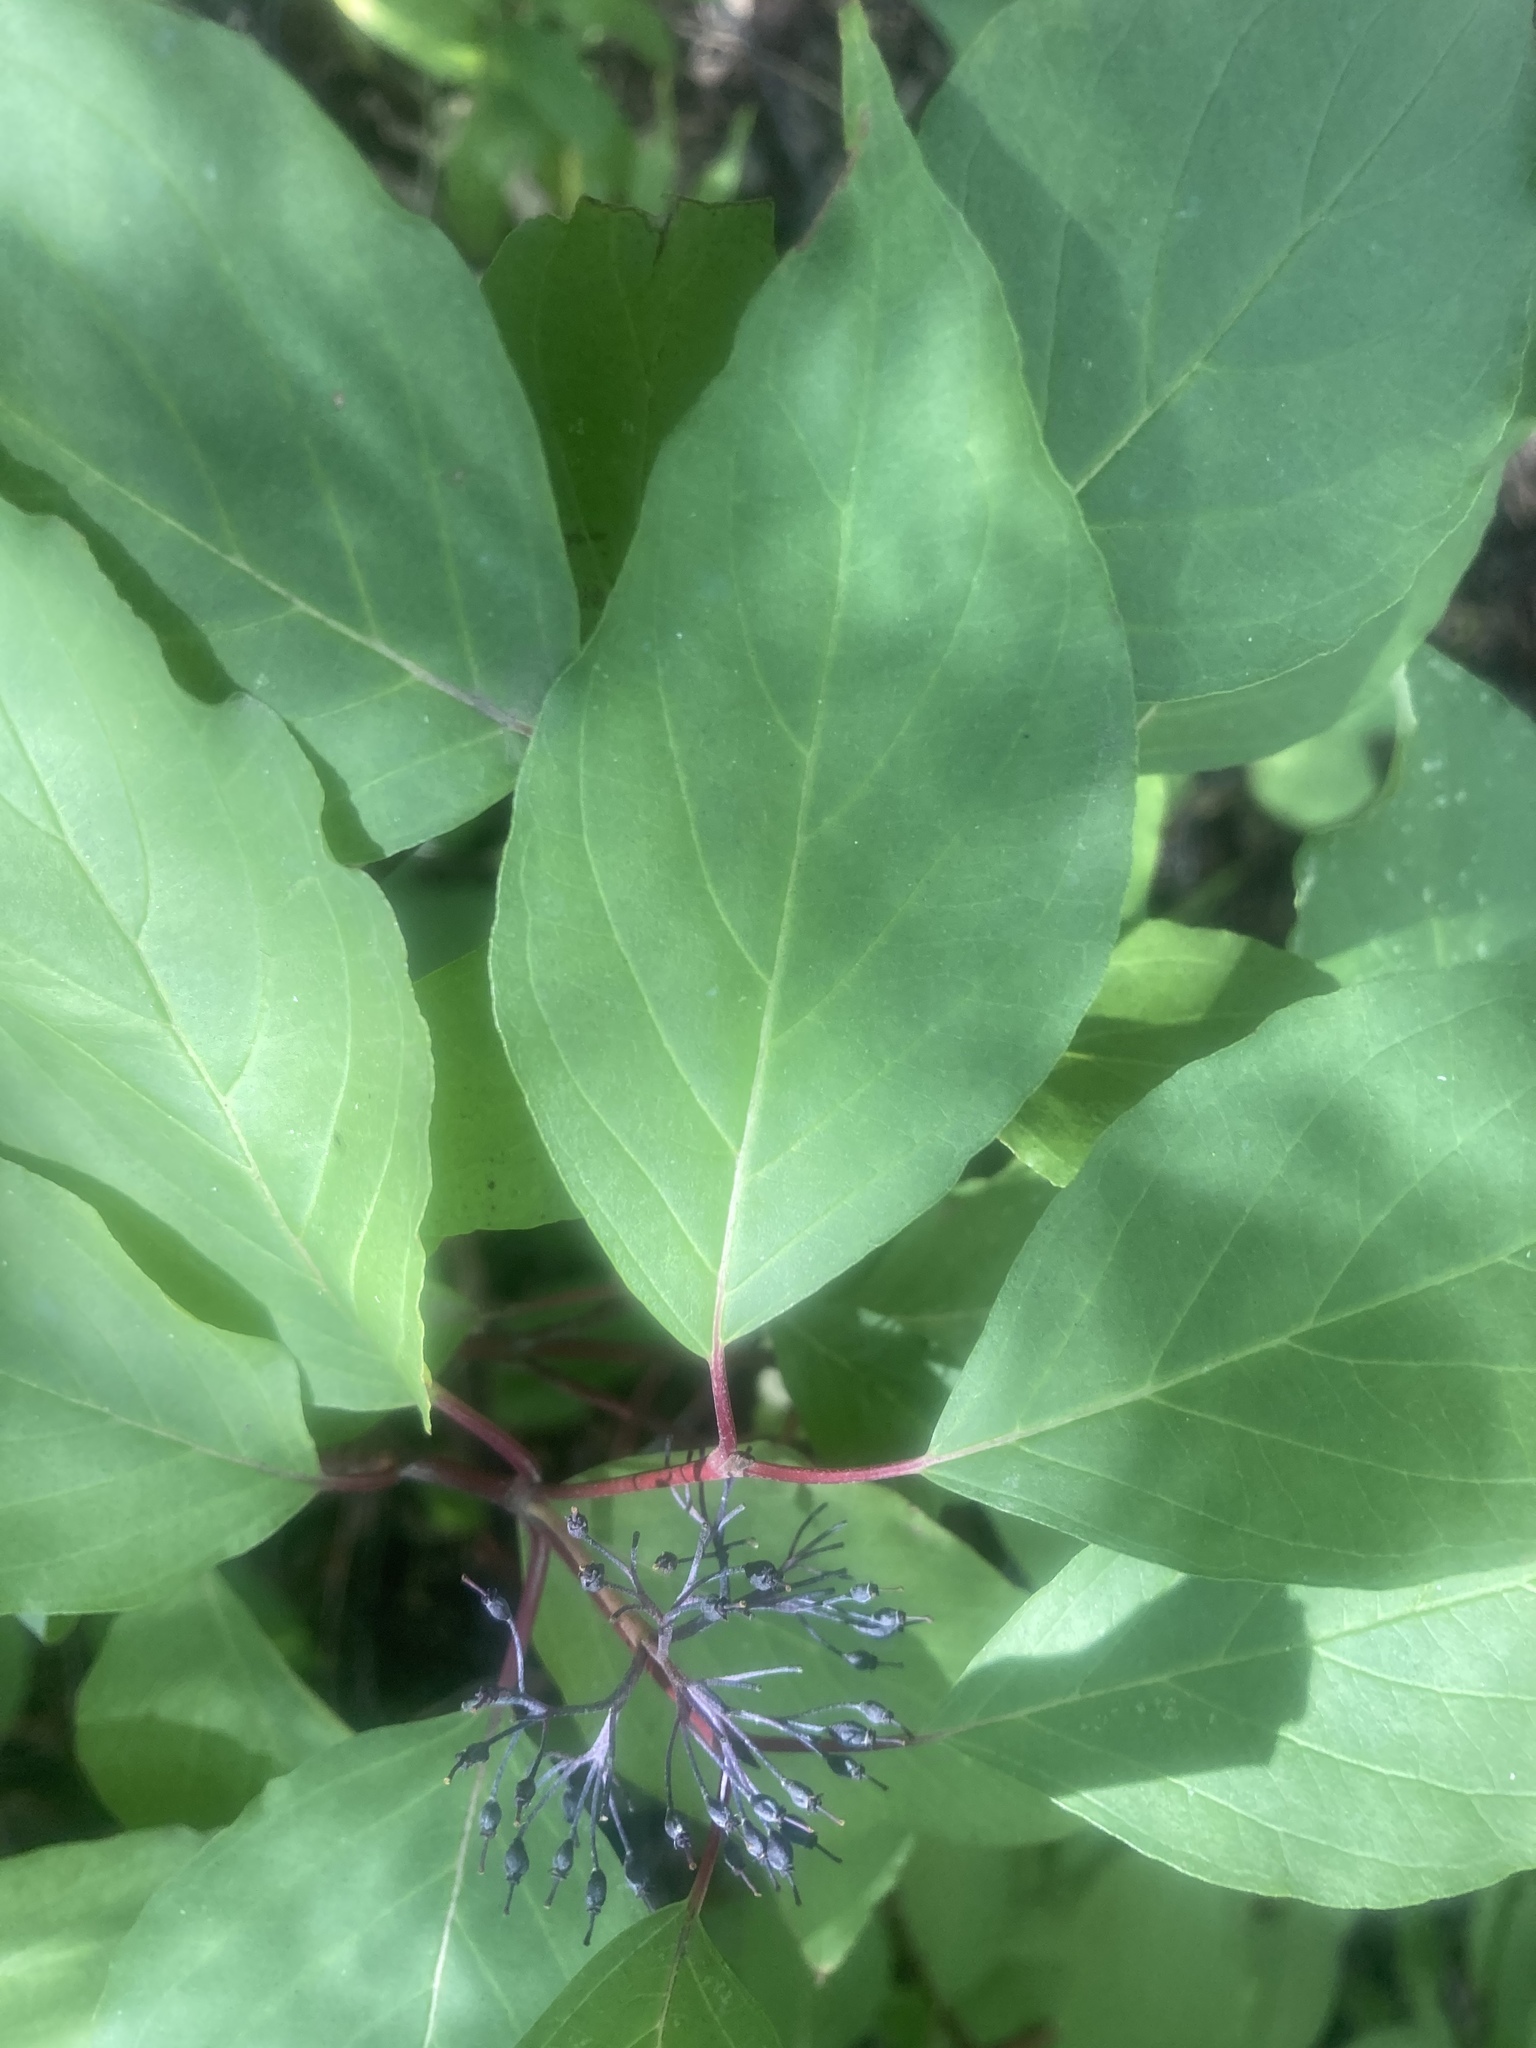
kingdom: Plantae
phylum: Tracheophyta
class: Magnoliopsida
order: Cornales
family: Cornaceae
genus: Cornus
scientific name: Cornus sericea
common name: Red-osier dogwood
